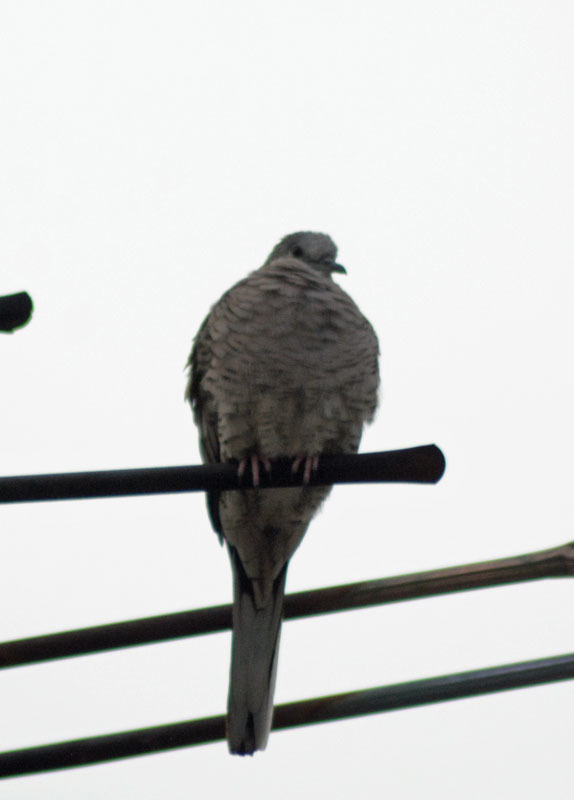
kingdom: Animalia
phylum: Chordata
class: Aves
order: Columbiformes
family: Columbidae
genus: Columbina
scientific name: Columbina inca
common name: Inca dove
